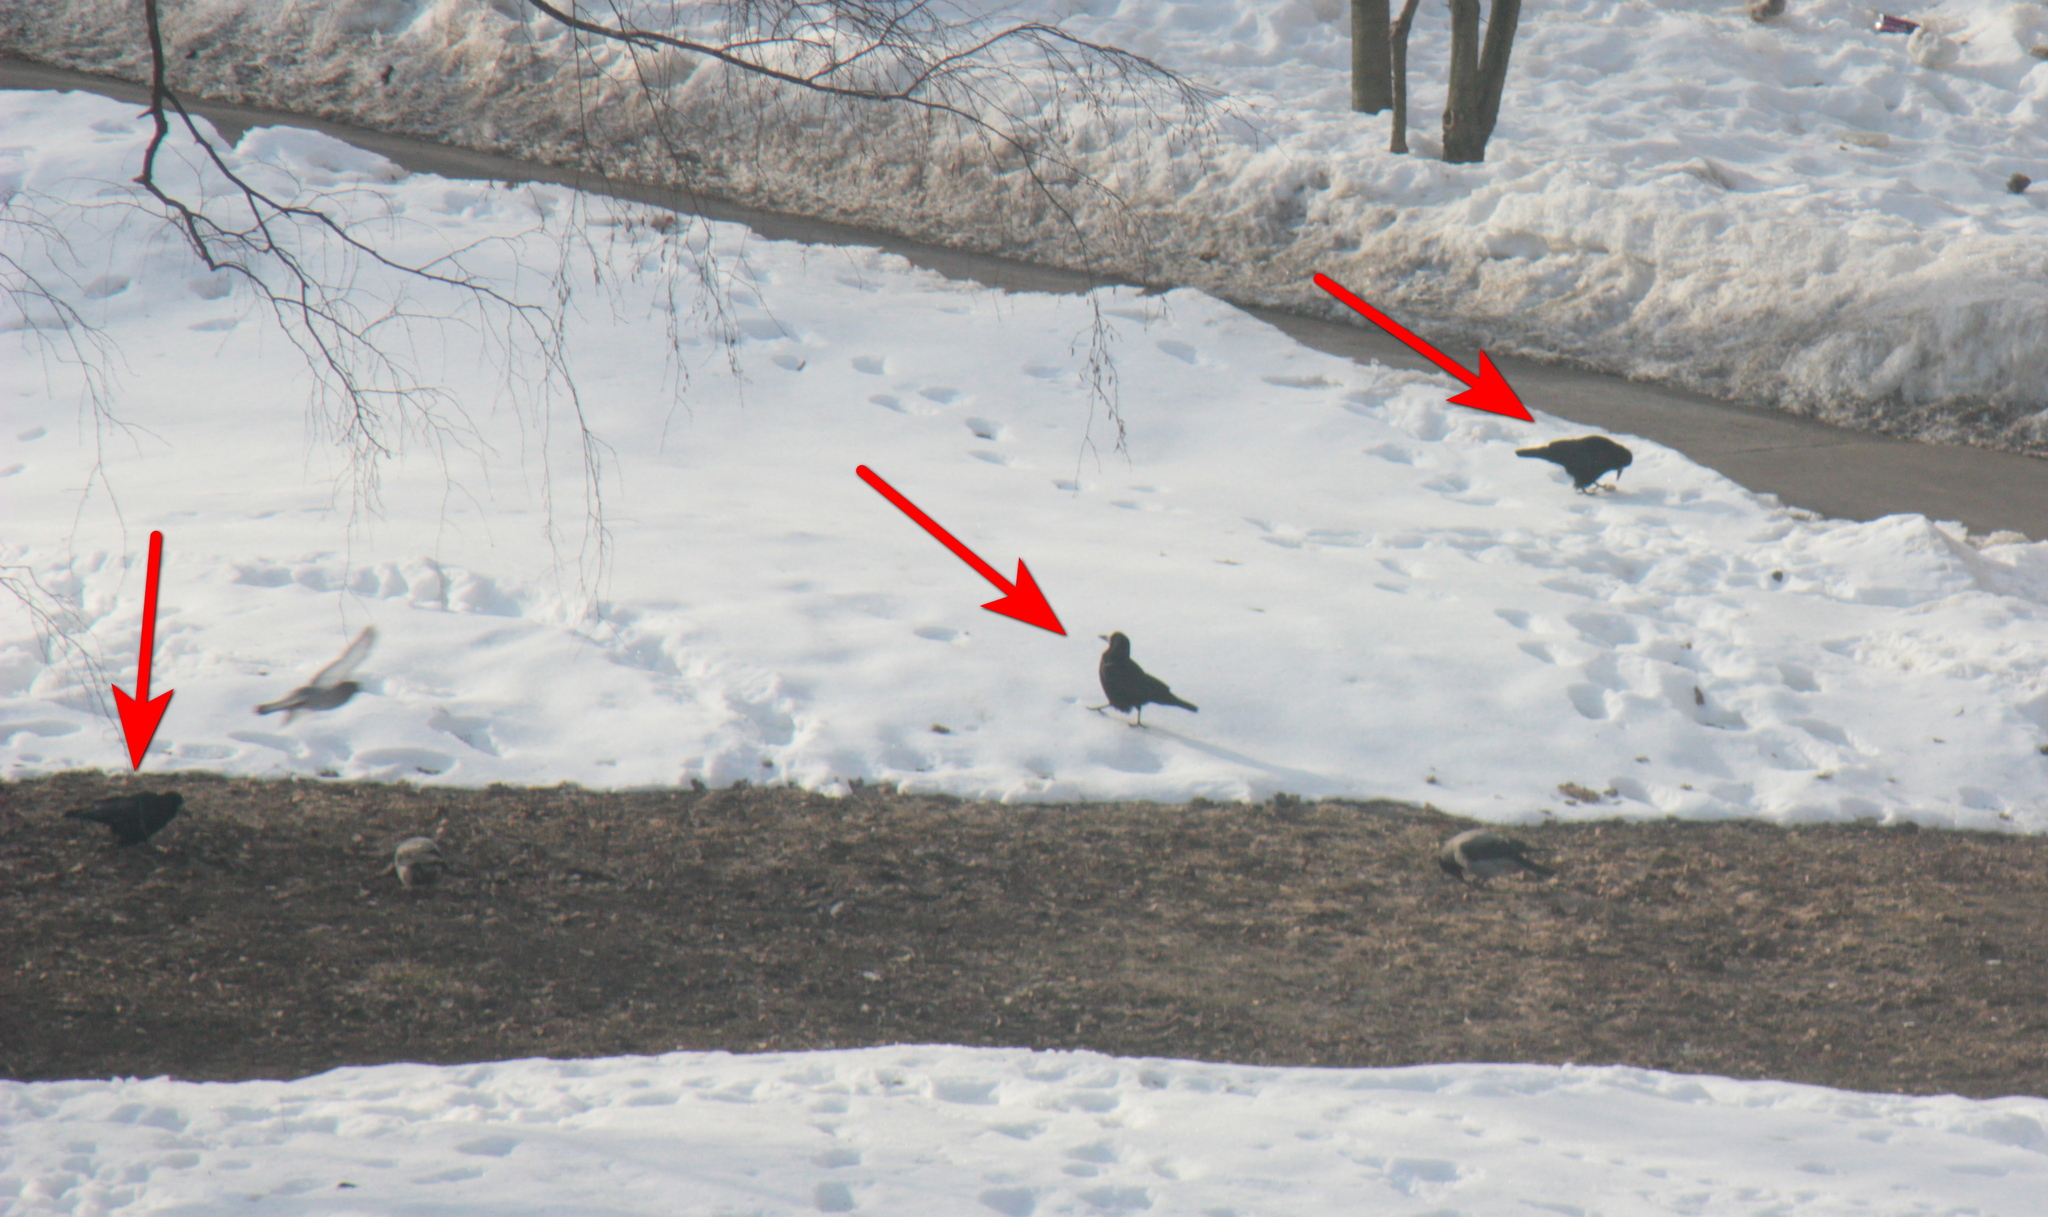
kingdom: Animalia
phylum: Chordata
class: Aves
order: Passeriformes
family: Corvidae
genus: Corvus
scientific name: Corvus frugilegus
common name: Rook
